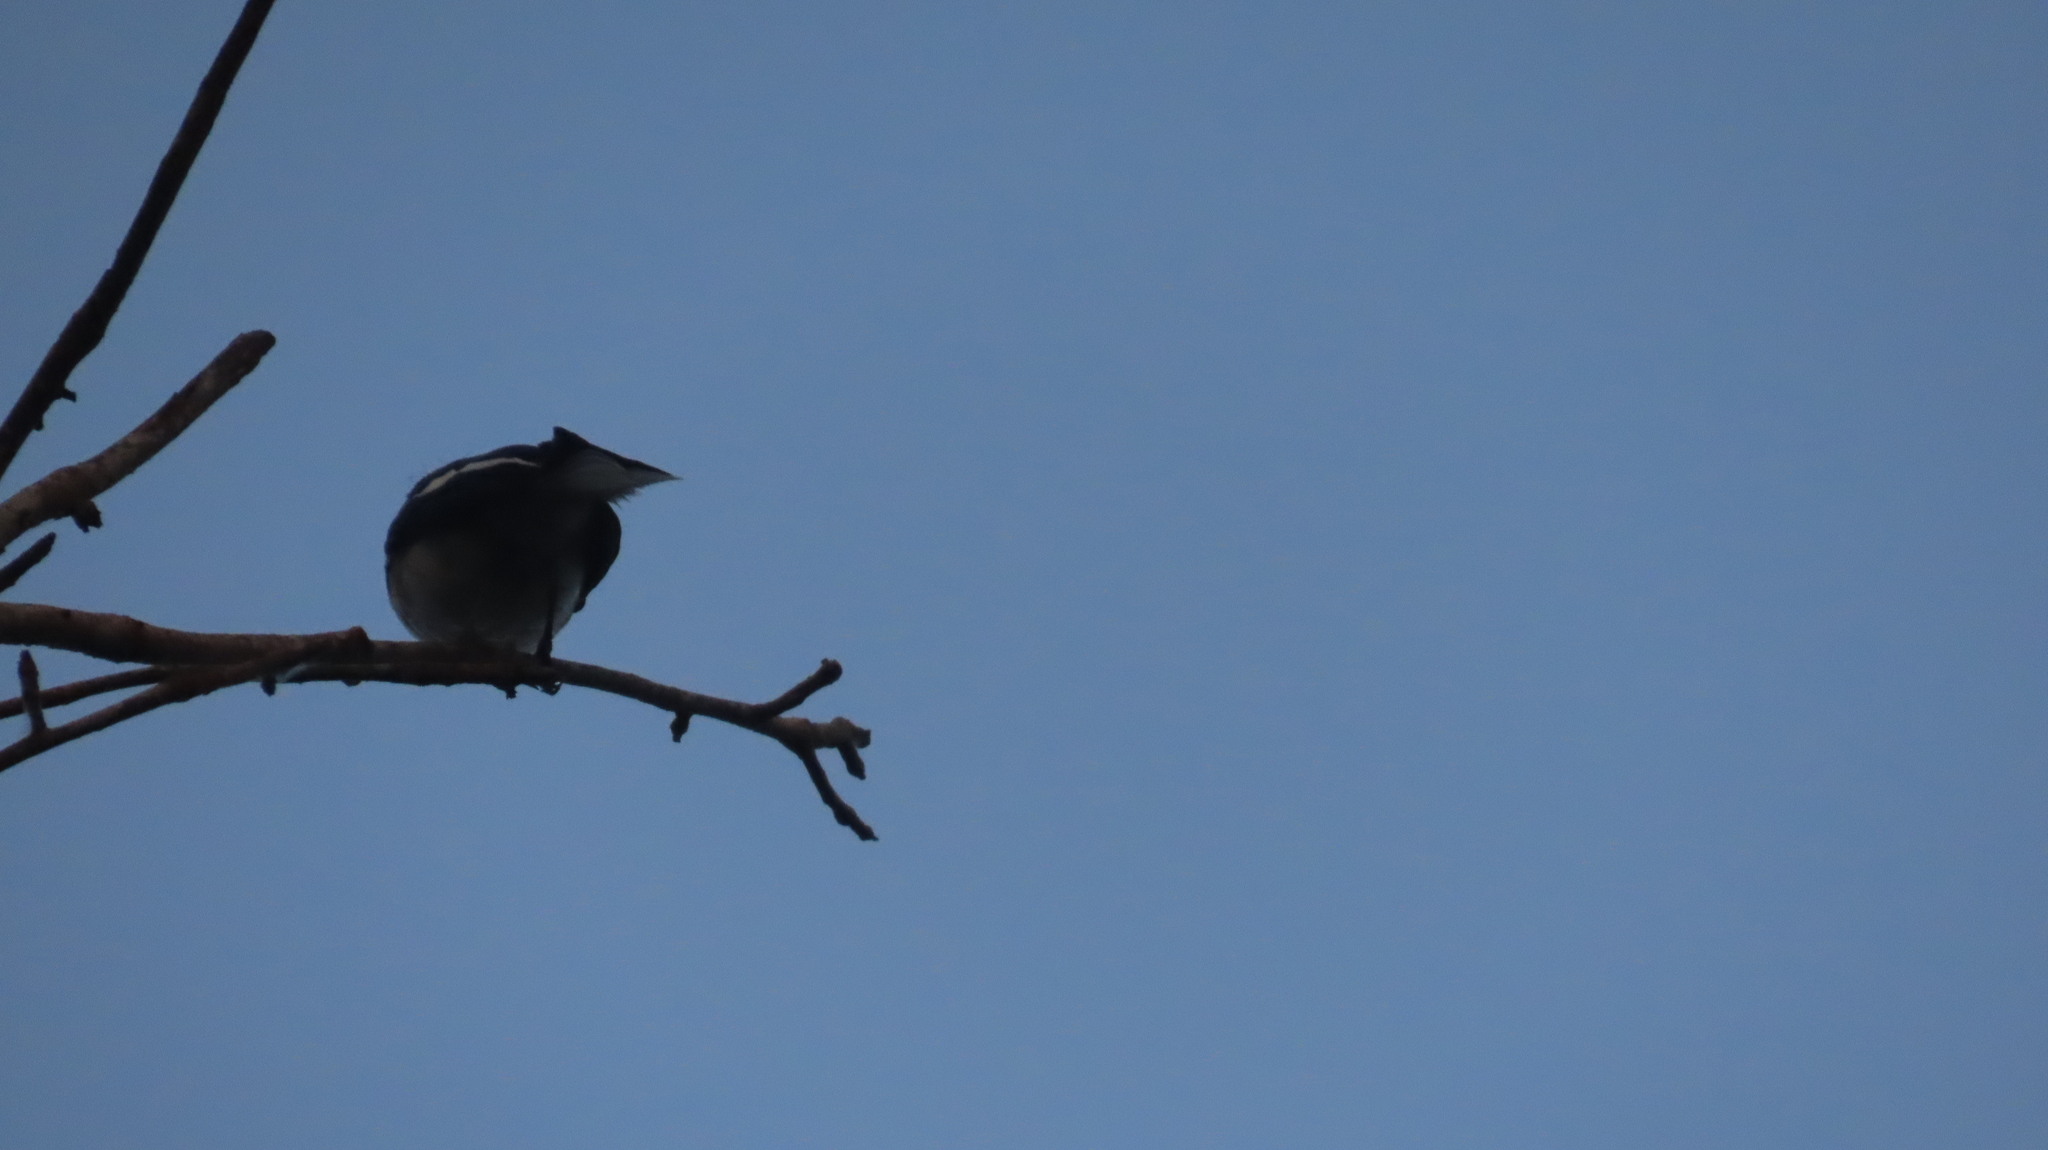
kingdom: Animalia
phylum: Chordata
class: Aves
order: Passeriformes
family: Muscicapidae
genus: Copsychus
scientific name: Copsychus saularis
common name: Oriental magpie-robin
